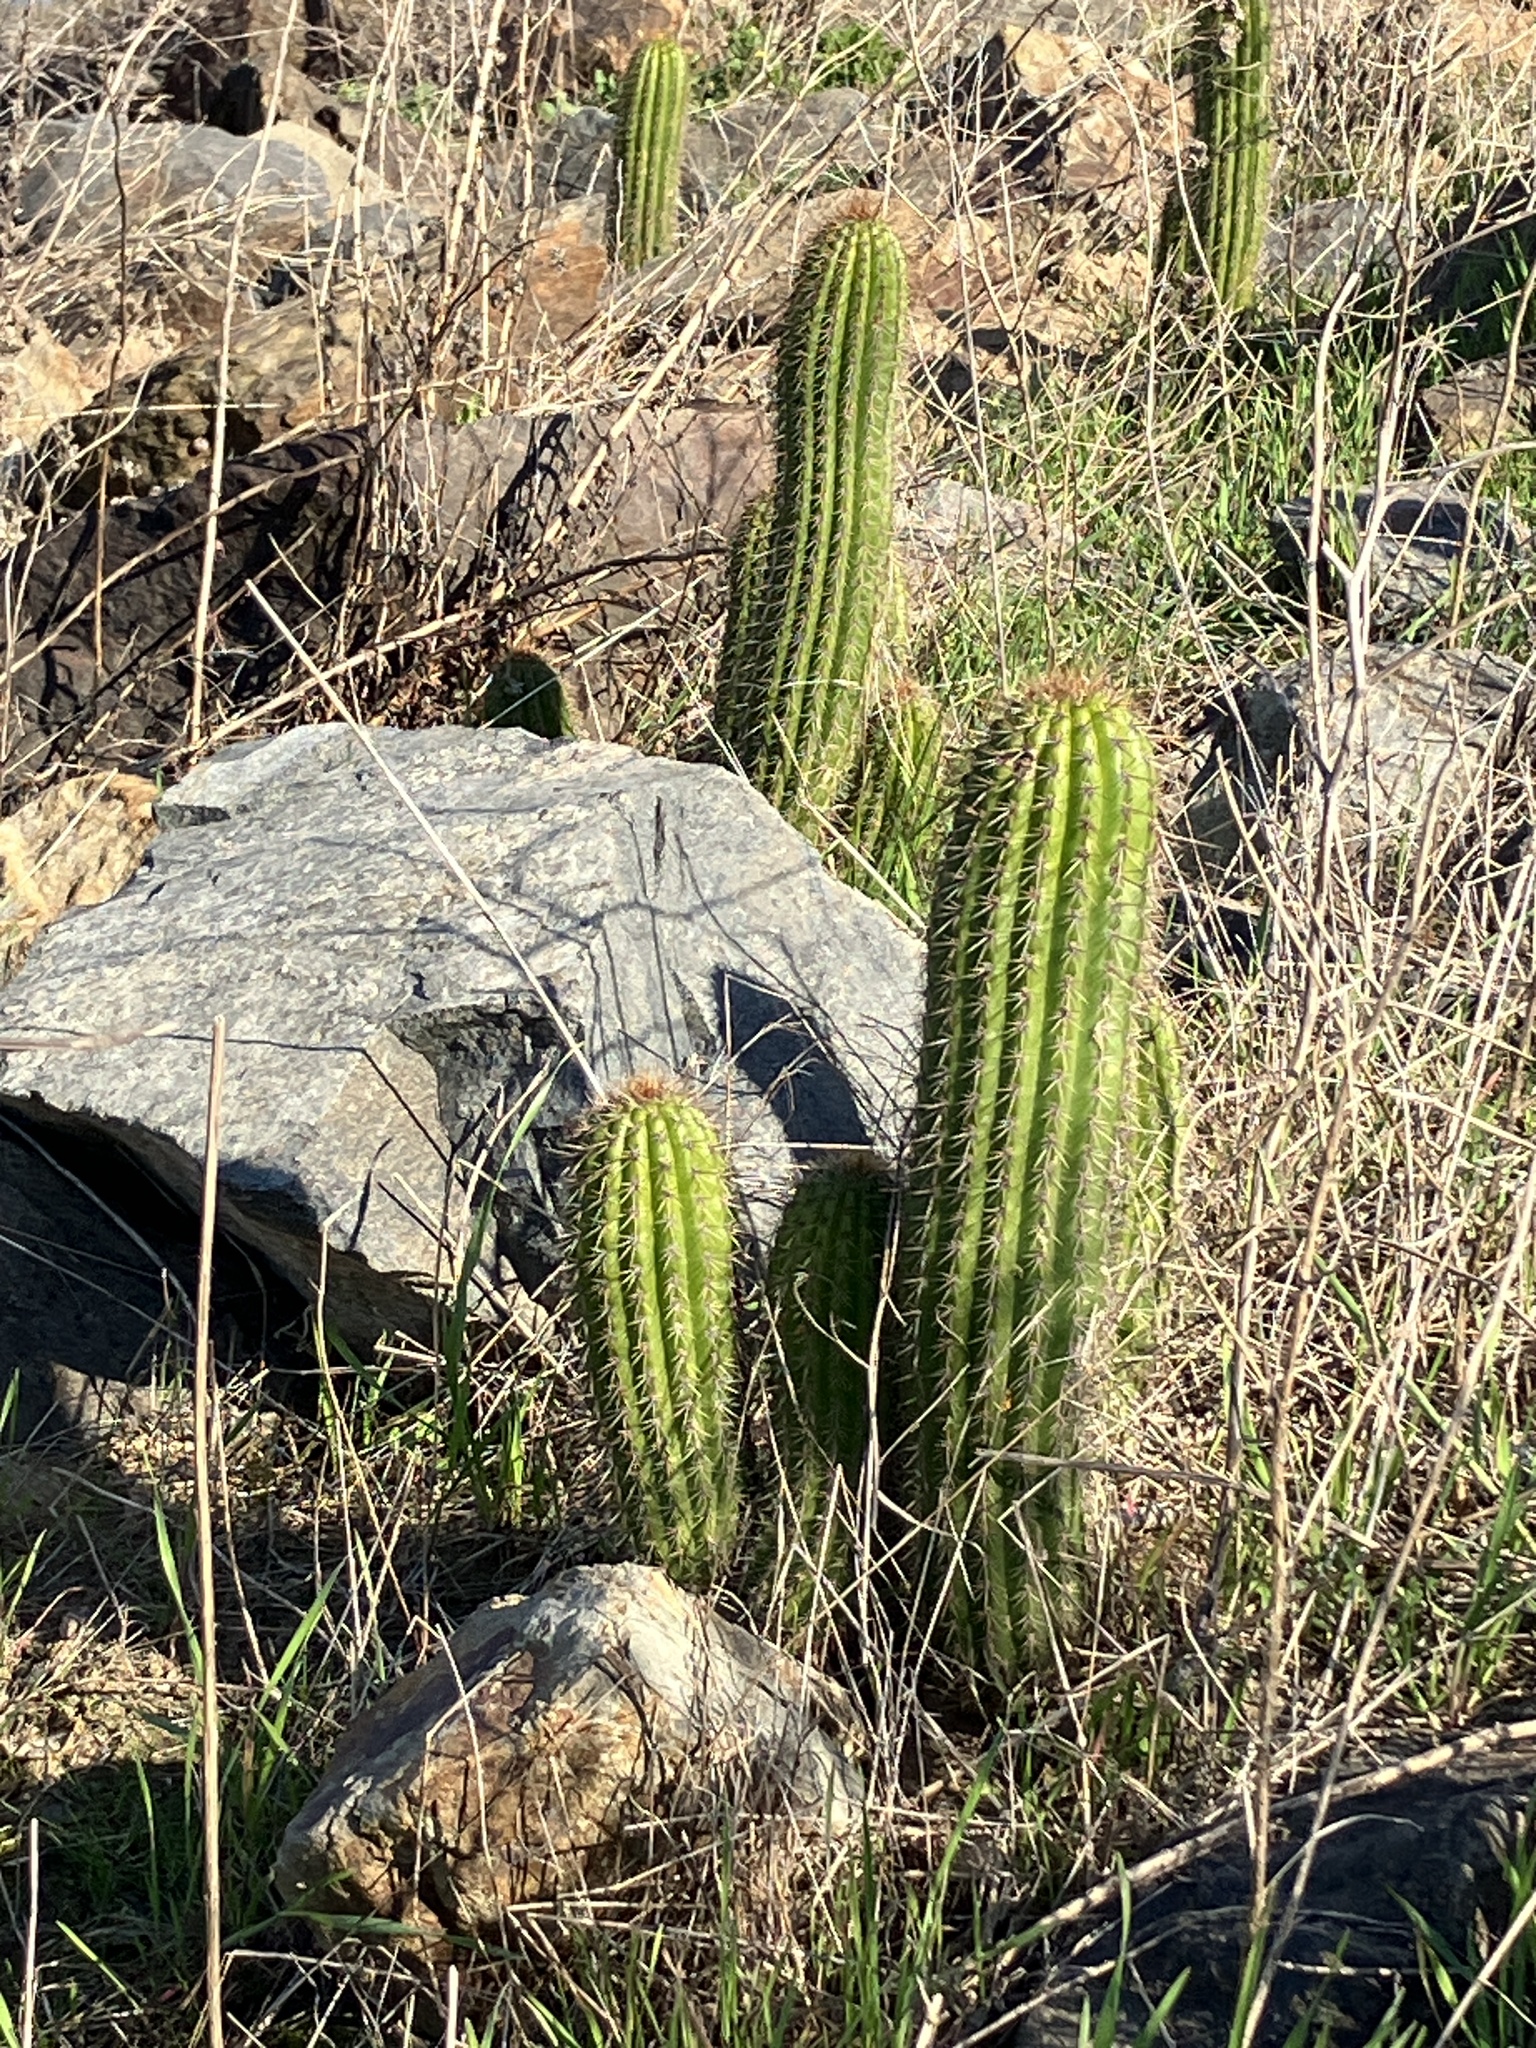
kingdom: Plantae
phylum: Tracheophyta
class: Magnoliopsida
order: Caryophyllales
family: Cactaceae
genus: Soehrensia
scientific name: Soehrensia spachiana
